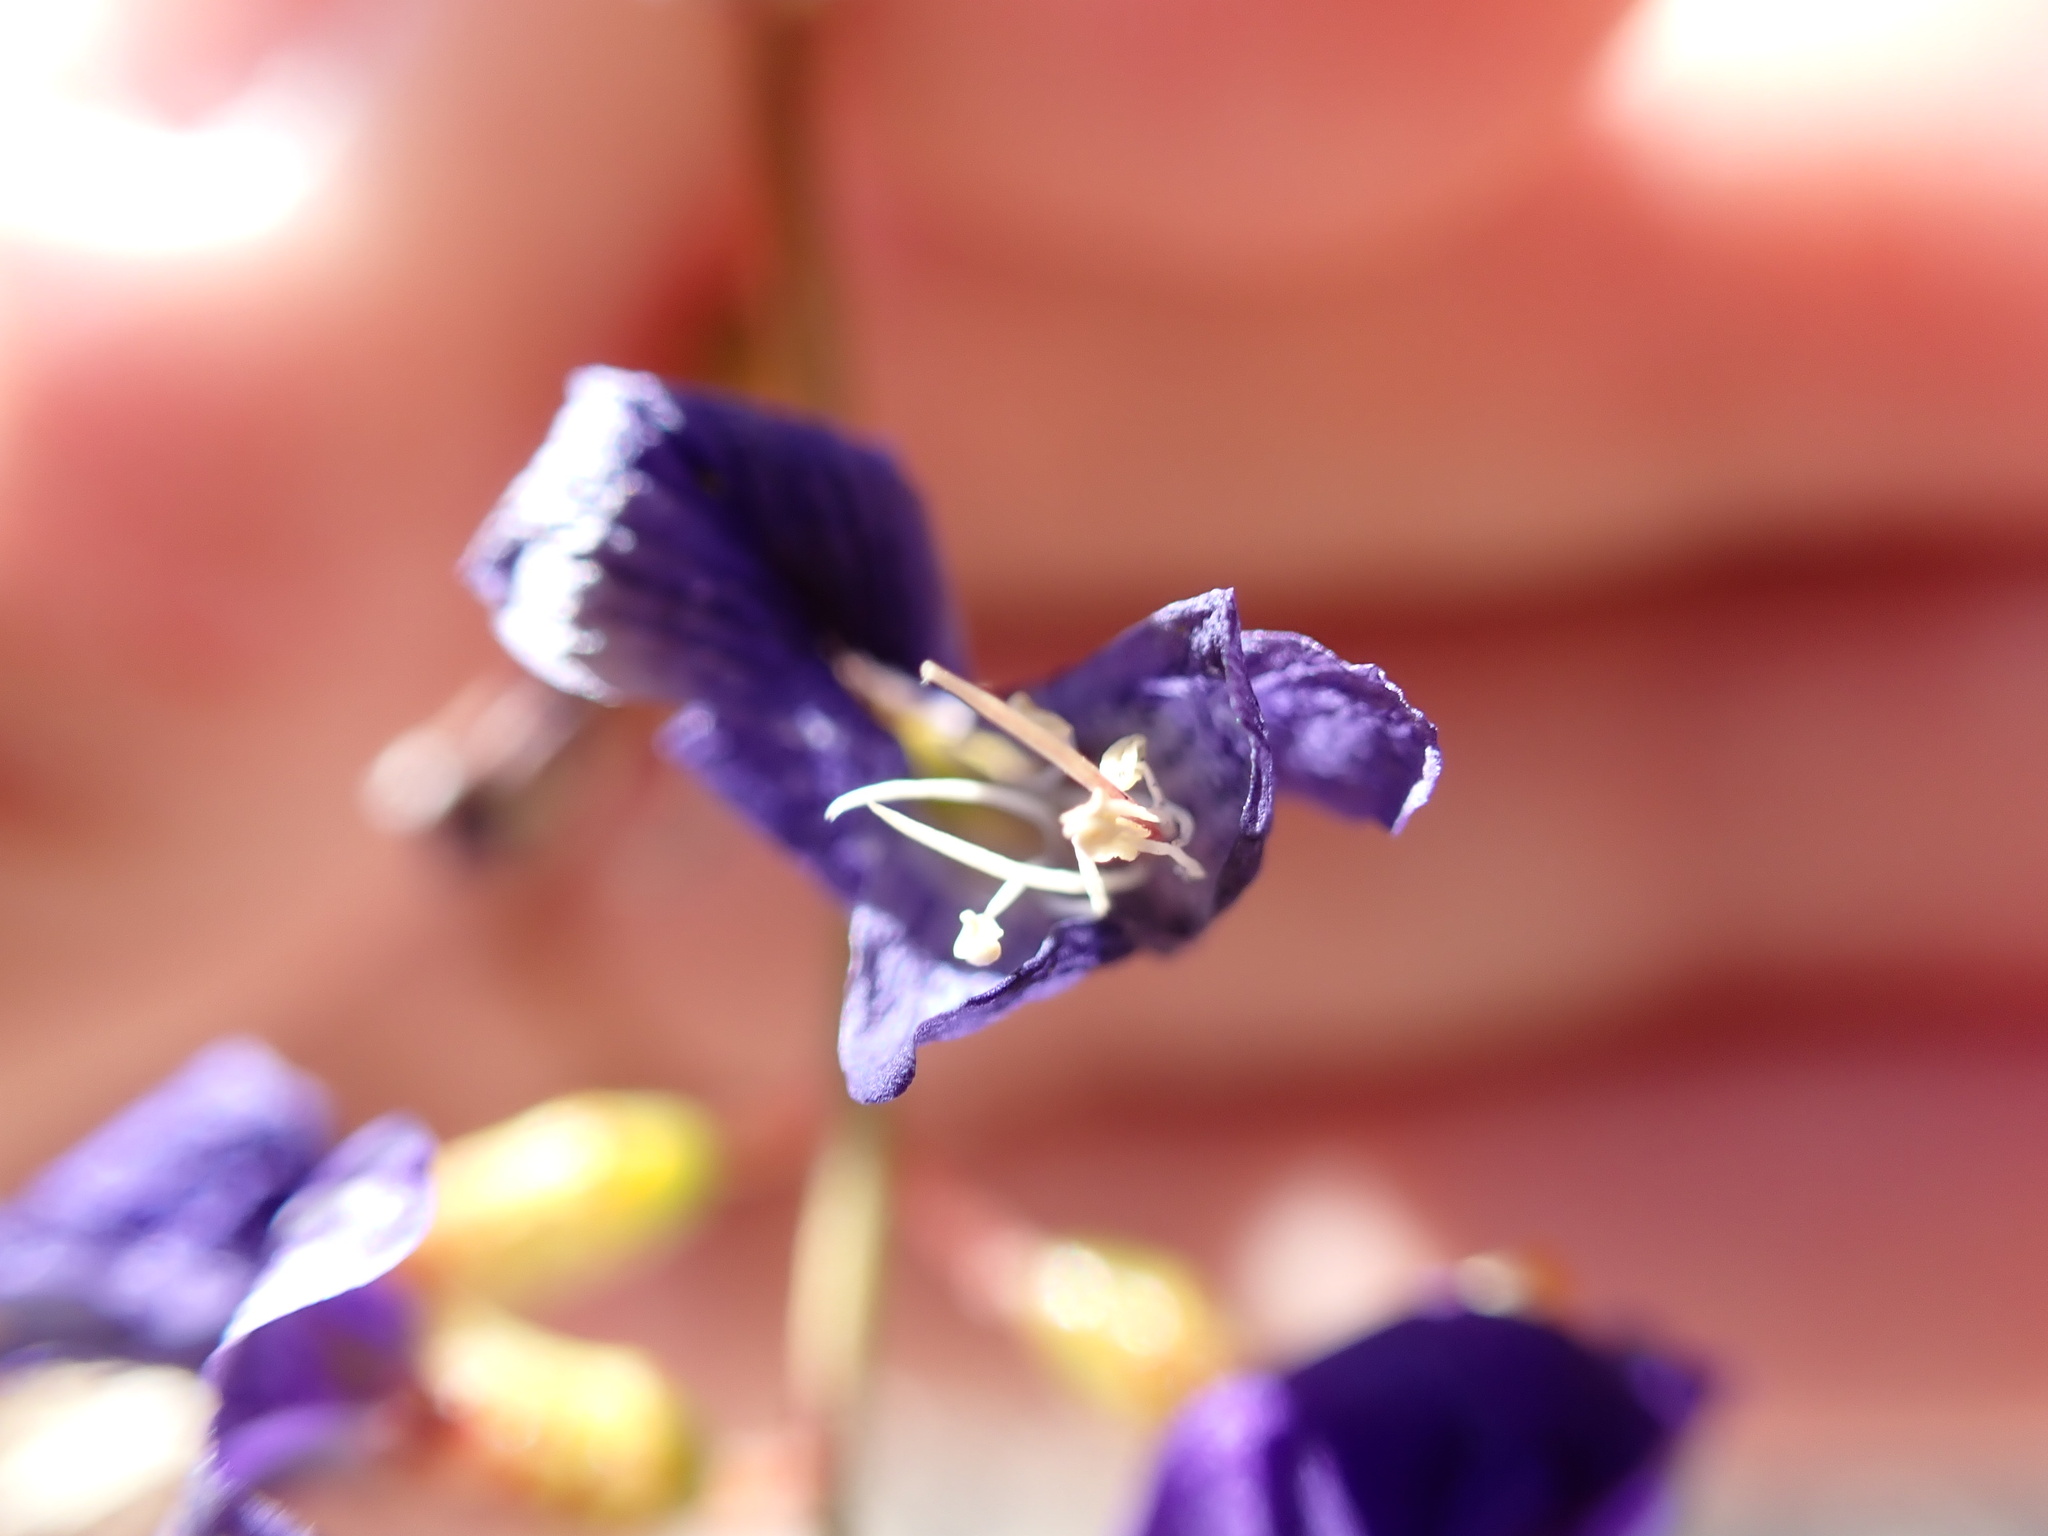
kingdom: Plantae
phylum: Tracheophyta
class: Magnoliopsida
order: Fabales
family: Fabaceae
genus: Psorothamnus
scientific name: Psorothamnus schottii
